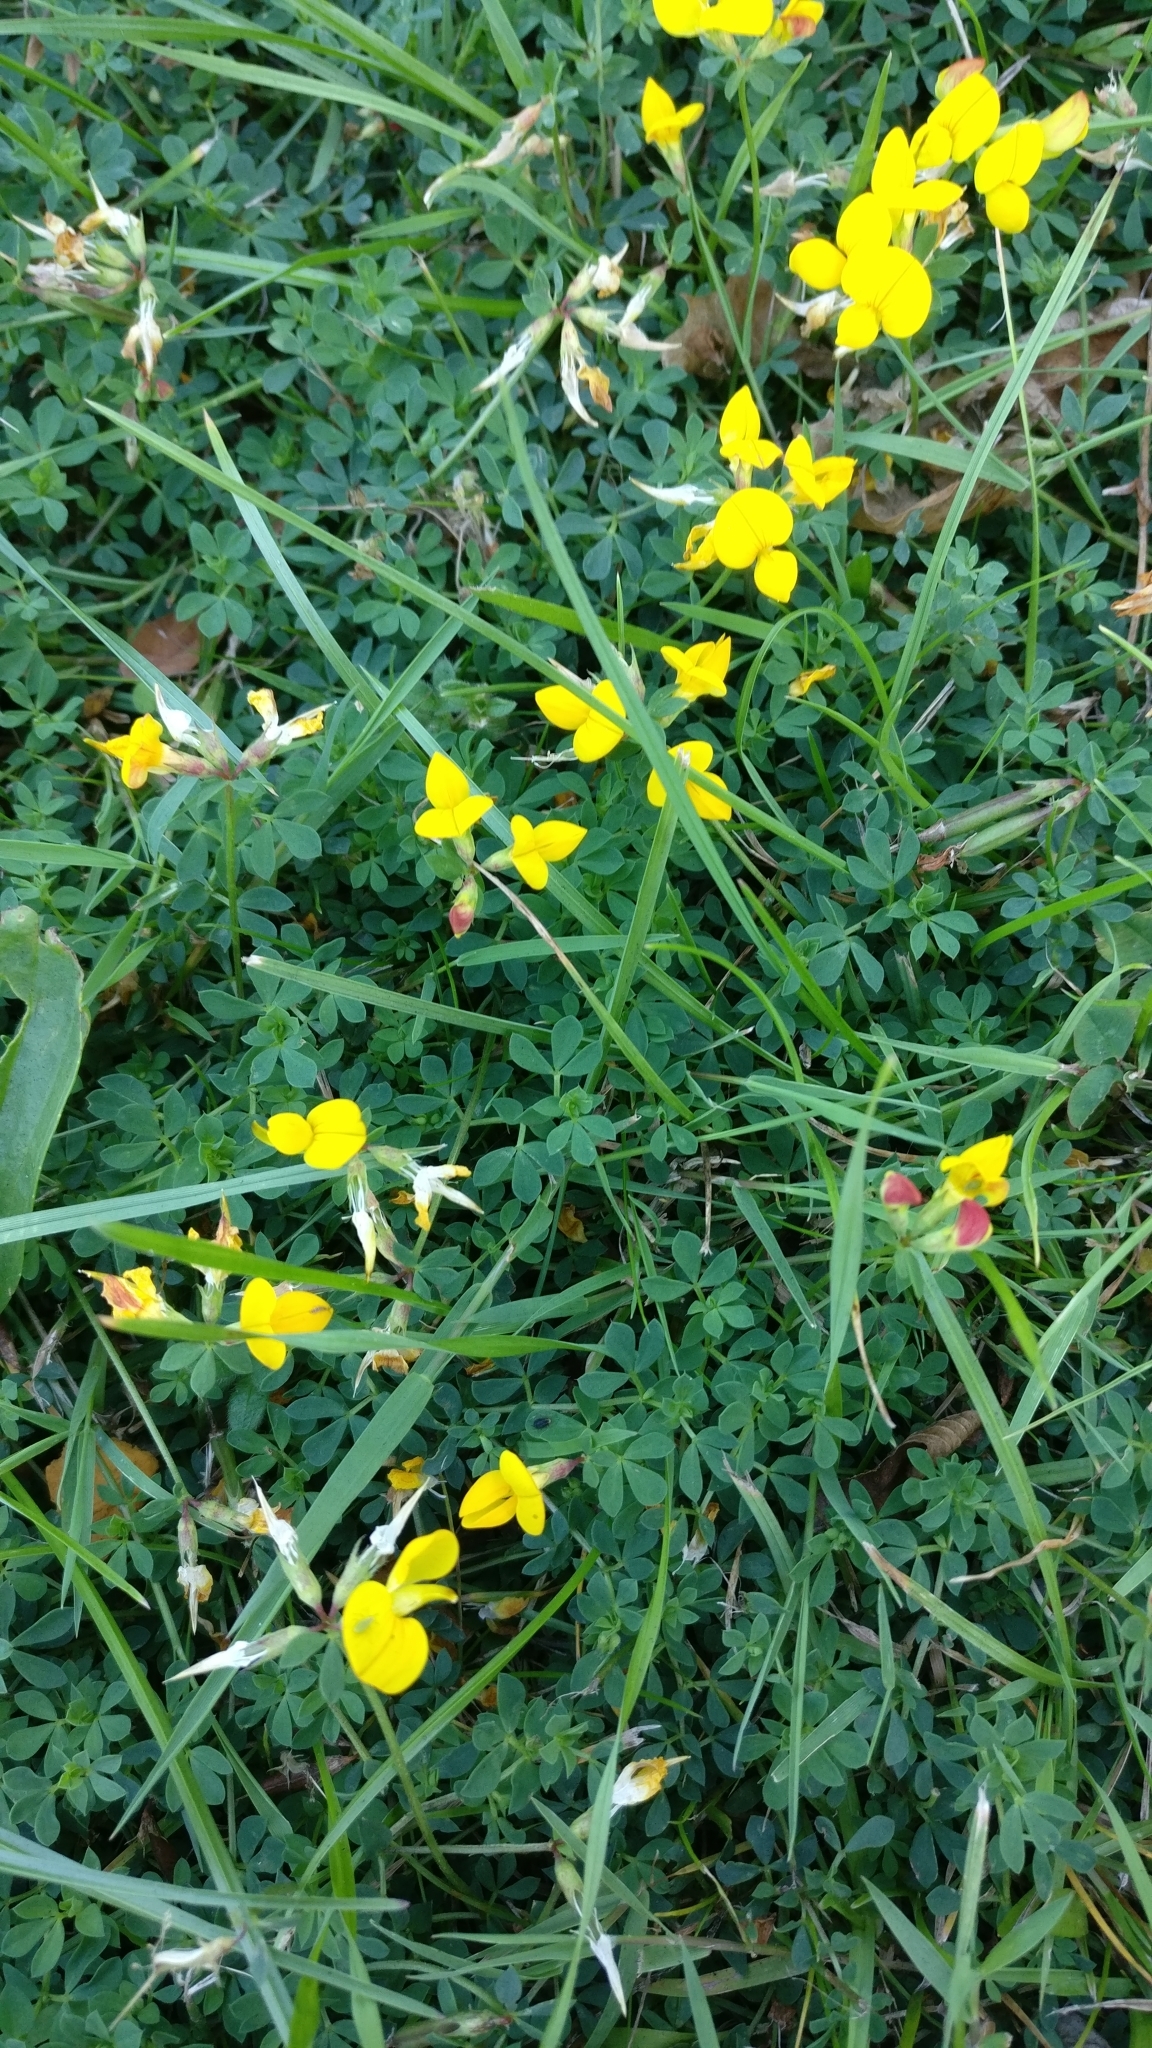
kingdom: Plantae
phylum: Tracheophyta
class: Magnoliopsida
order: Fabales
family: Fabaceae
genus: Lotus
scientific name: Lotus corniculatus
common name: Common bird's-foot-trefoil
